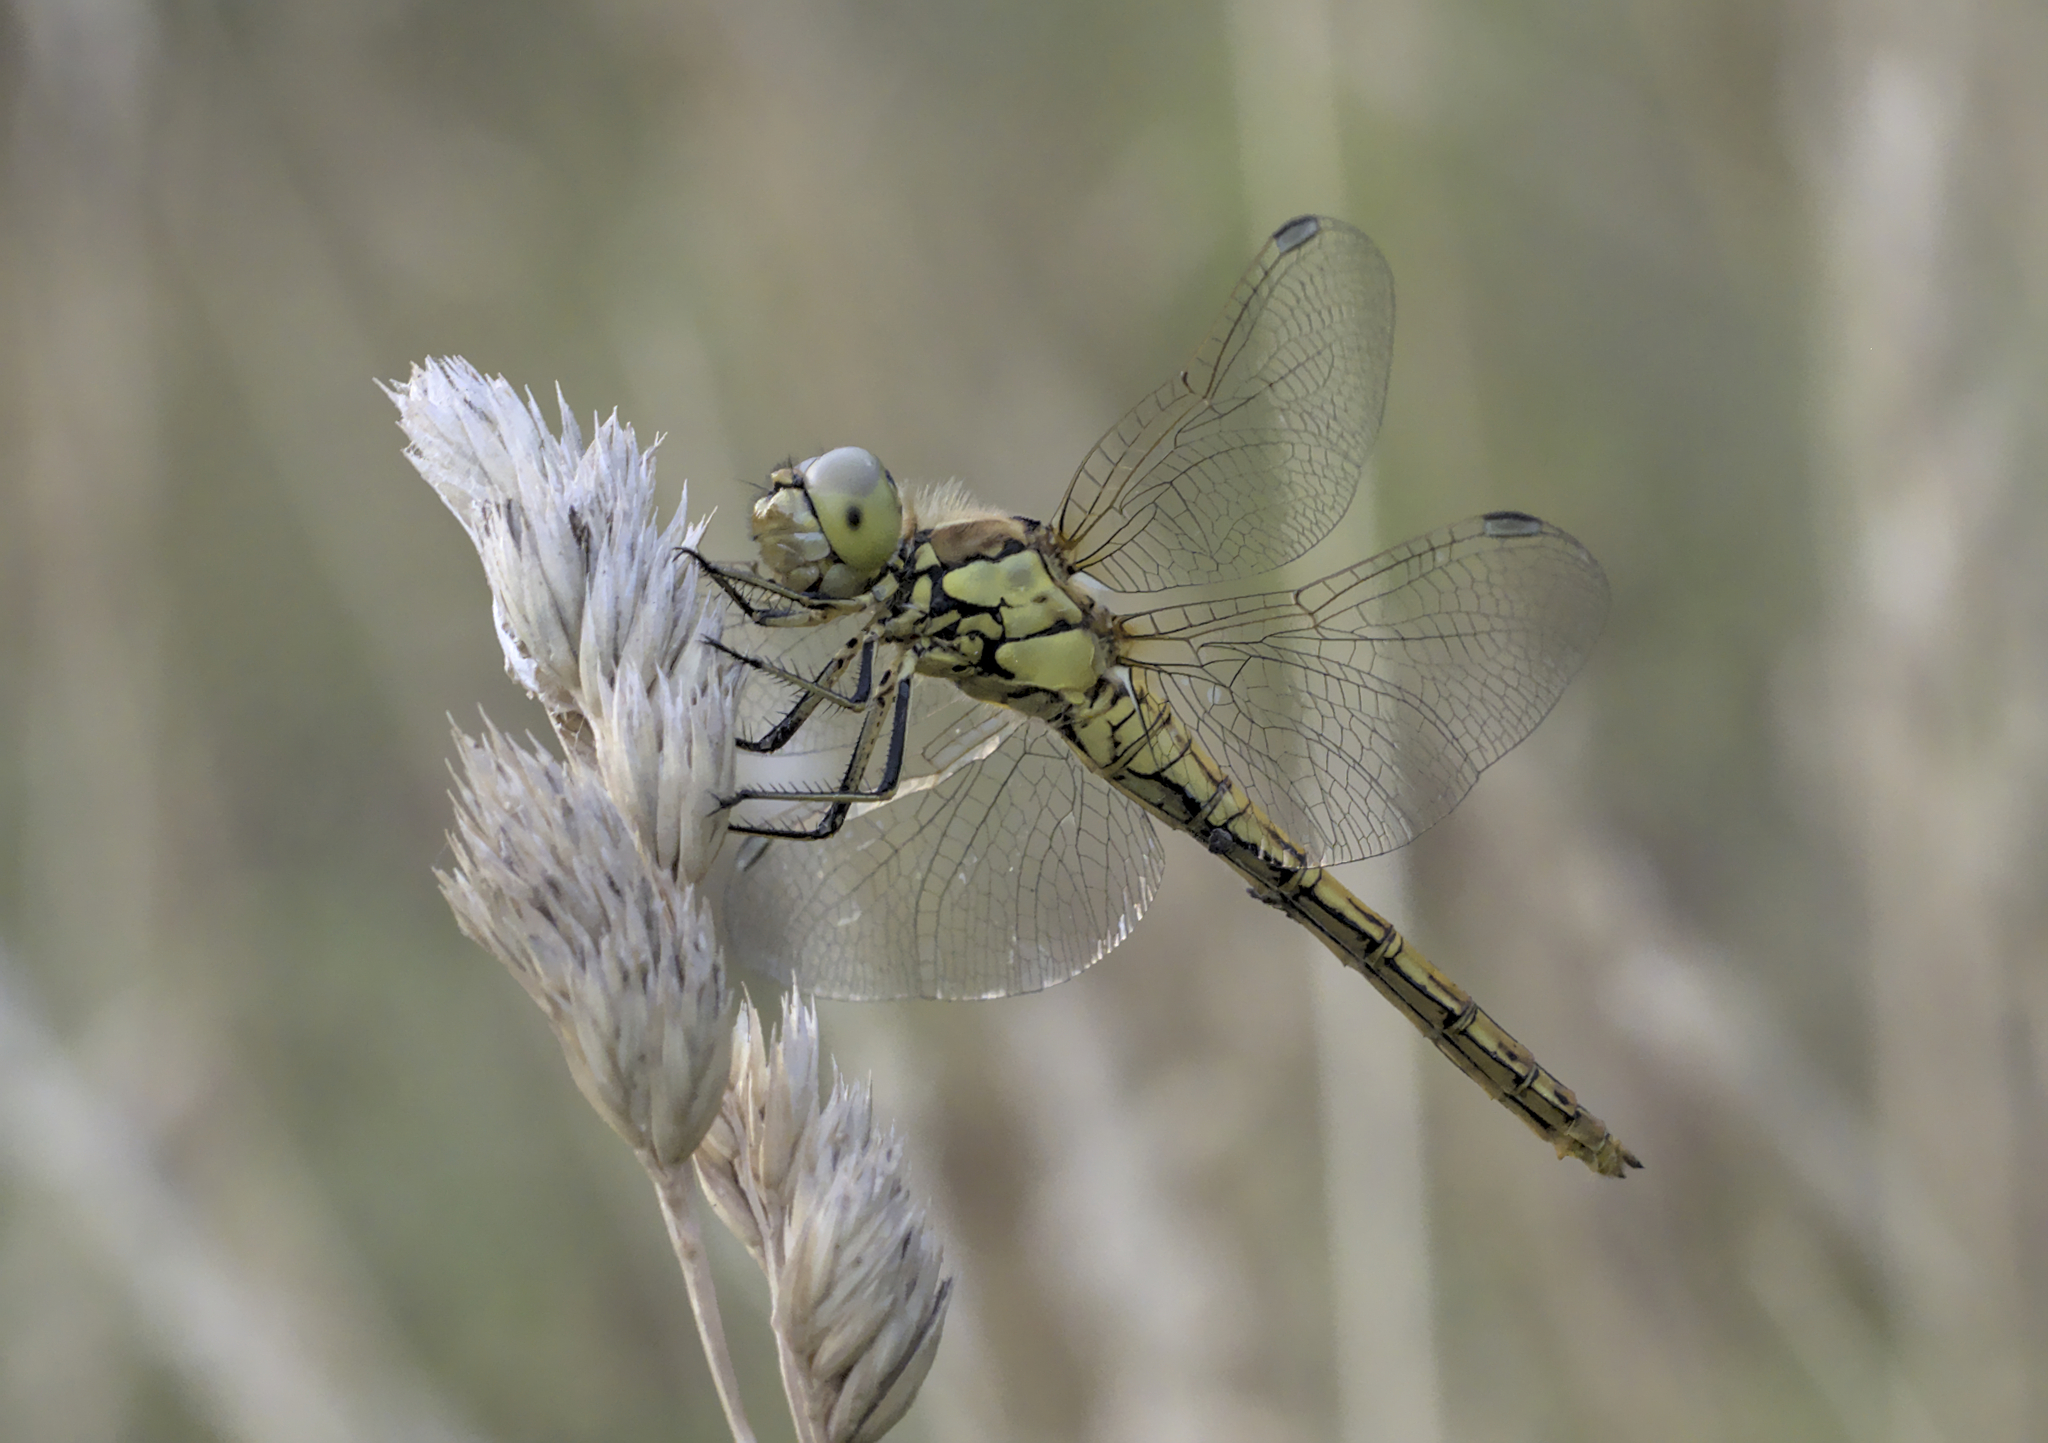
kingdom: Animalia
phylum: Arthropoda
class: Insecta
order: Odonata
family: Libellulidae
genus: Sympetrum
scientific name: Sympetrum vulgatum
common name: Vagrant darter
